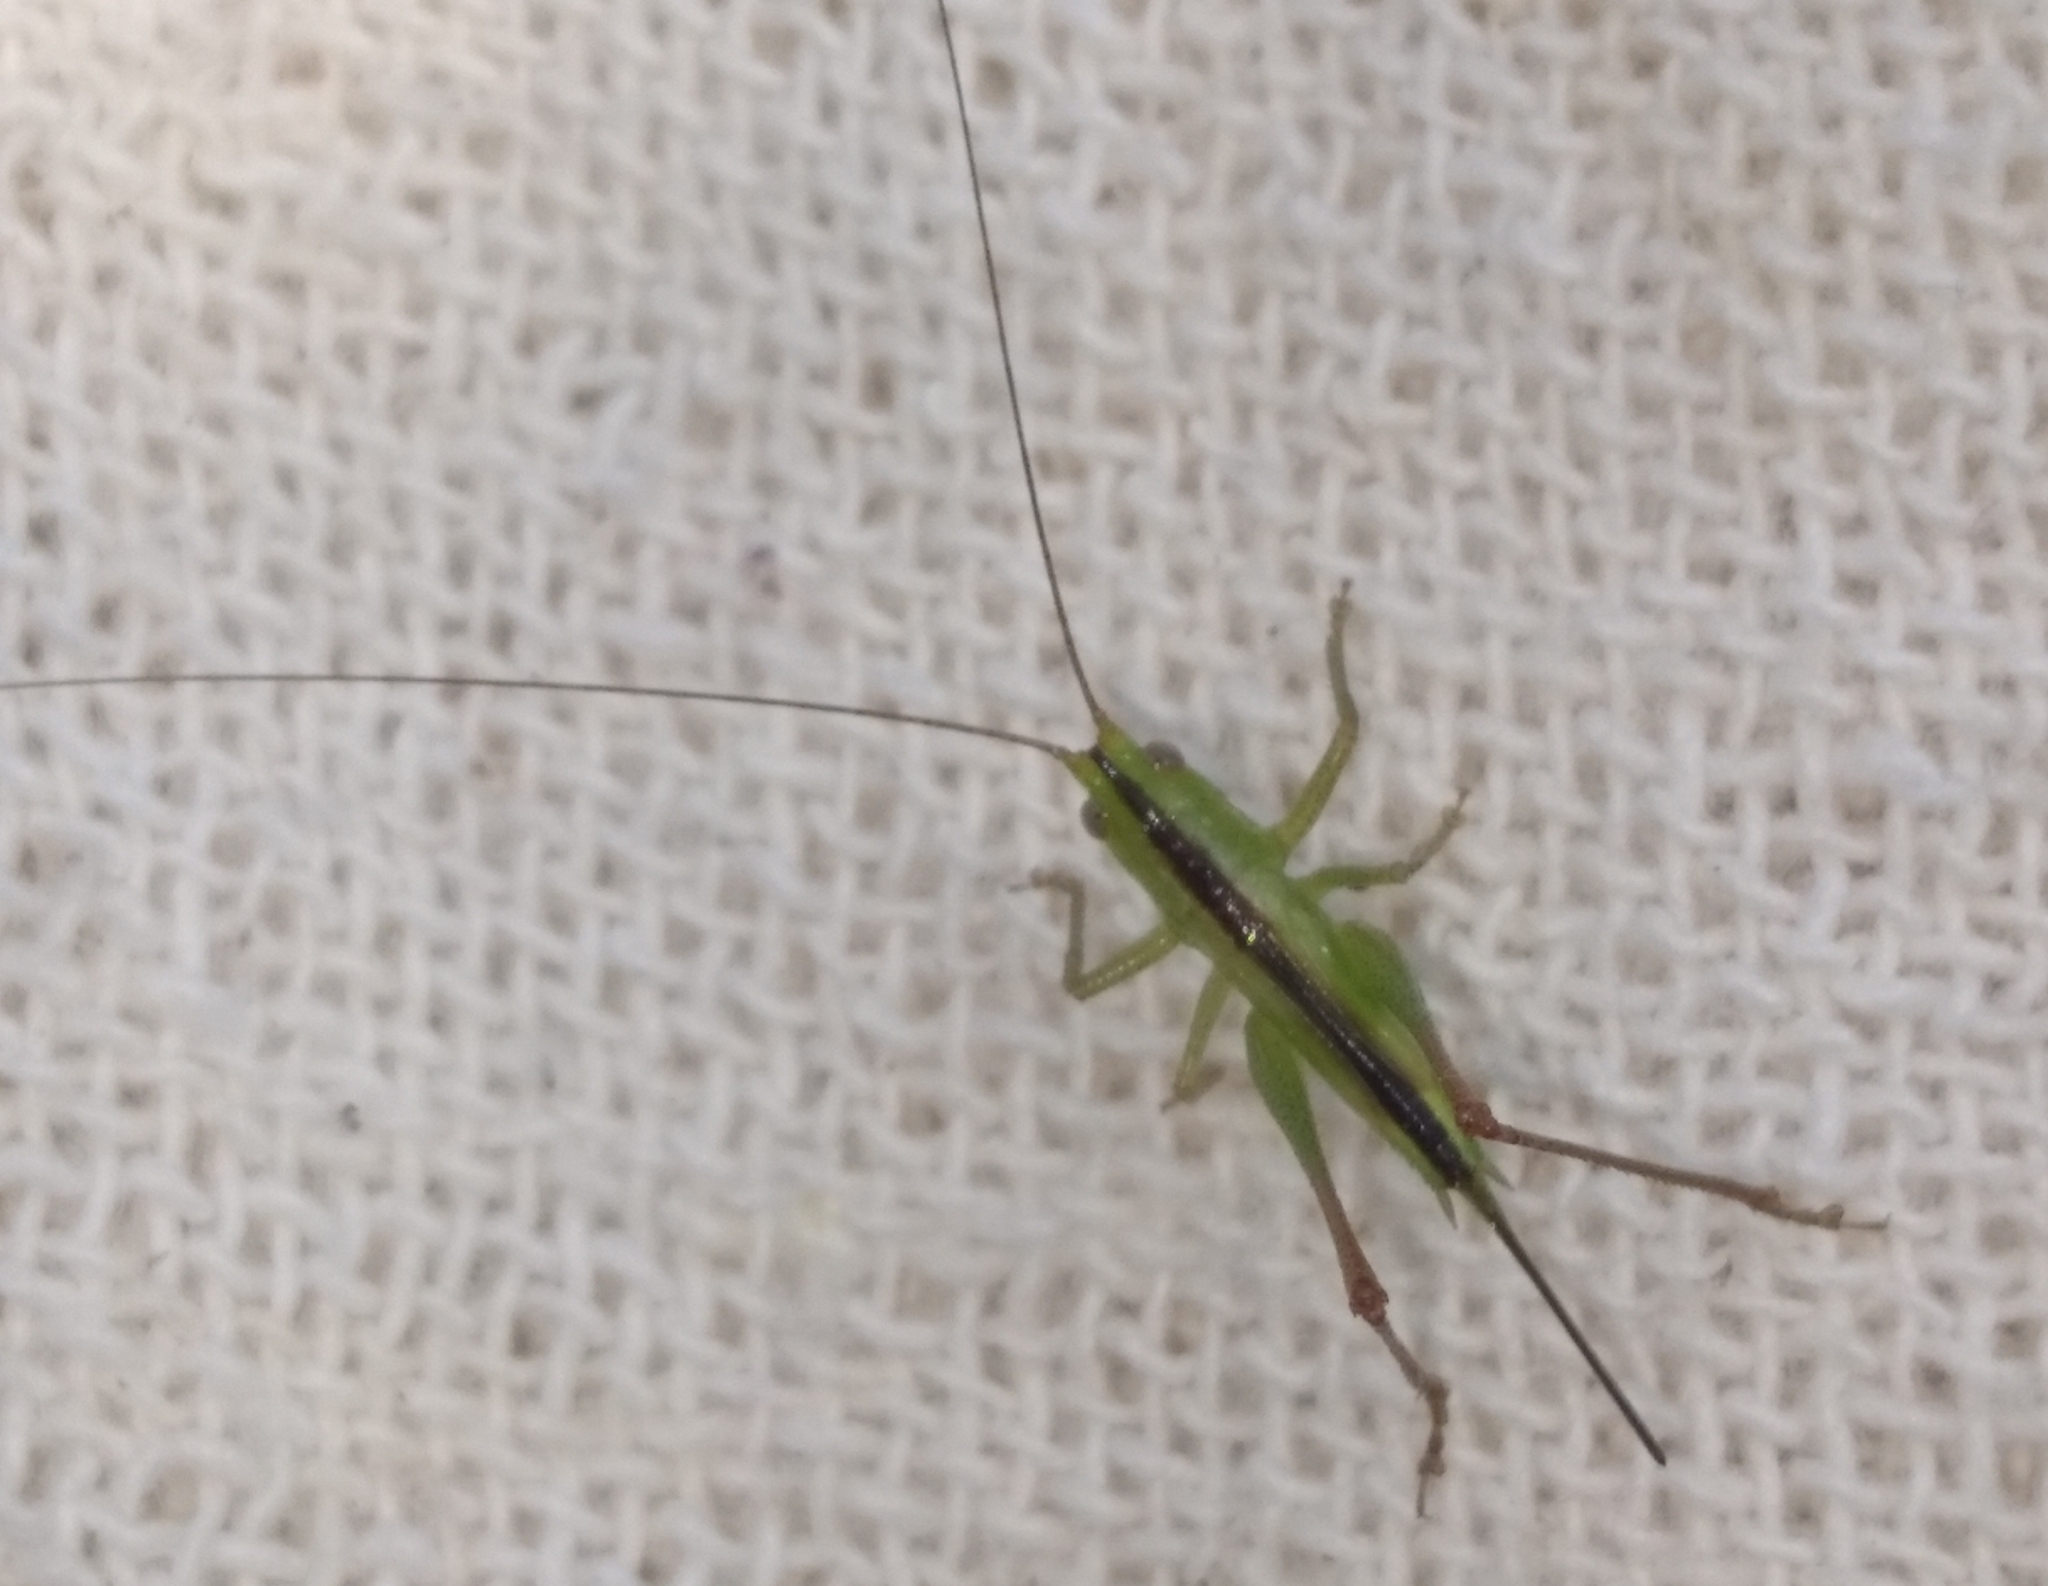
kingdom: Animalia
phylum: Arthropoda
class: Insecta
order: Orthoptera
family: Tettigoniidae
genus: Conocephalus
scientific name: Conocephalus longipes
